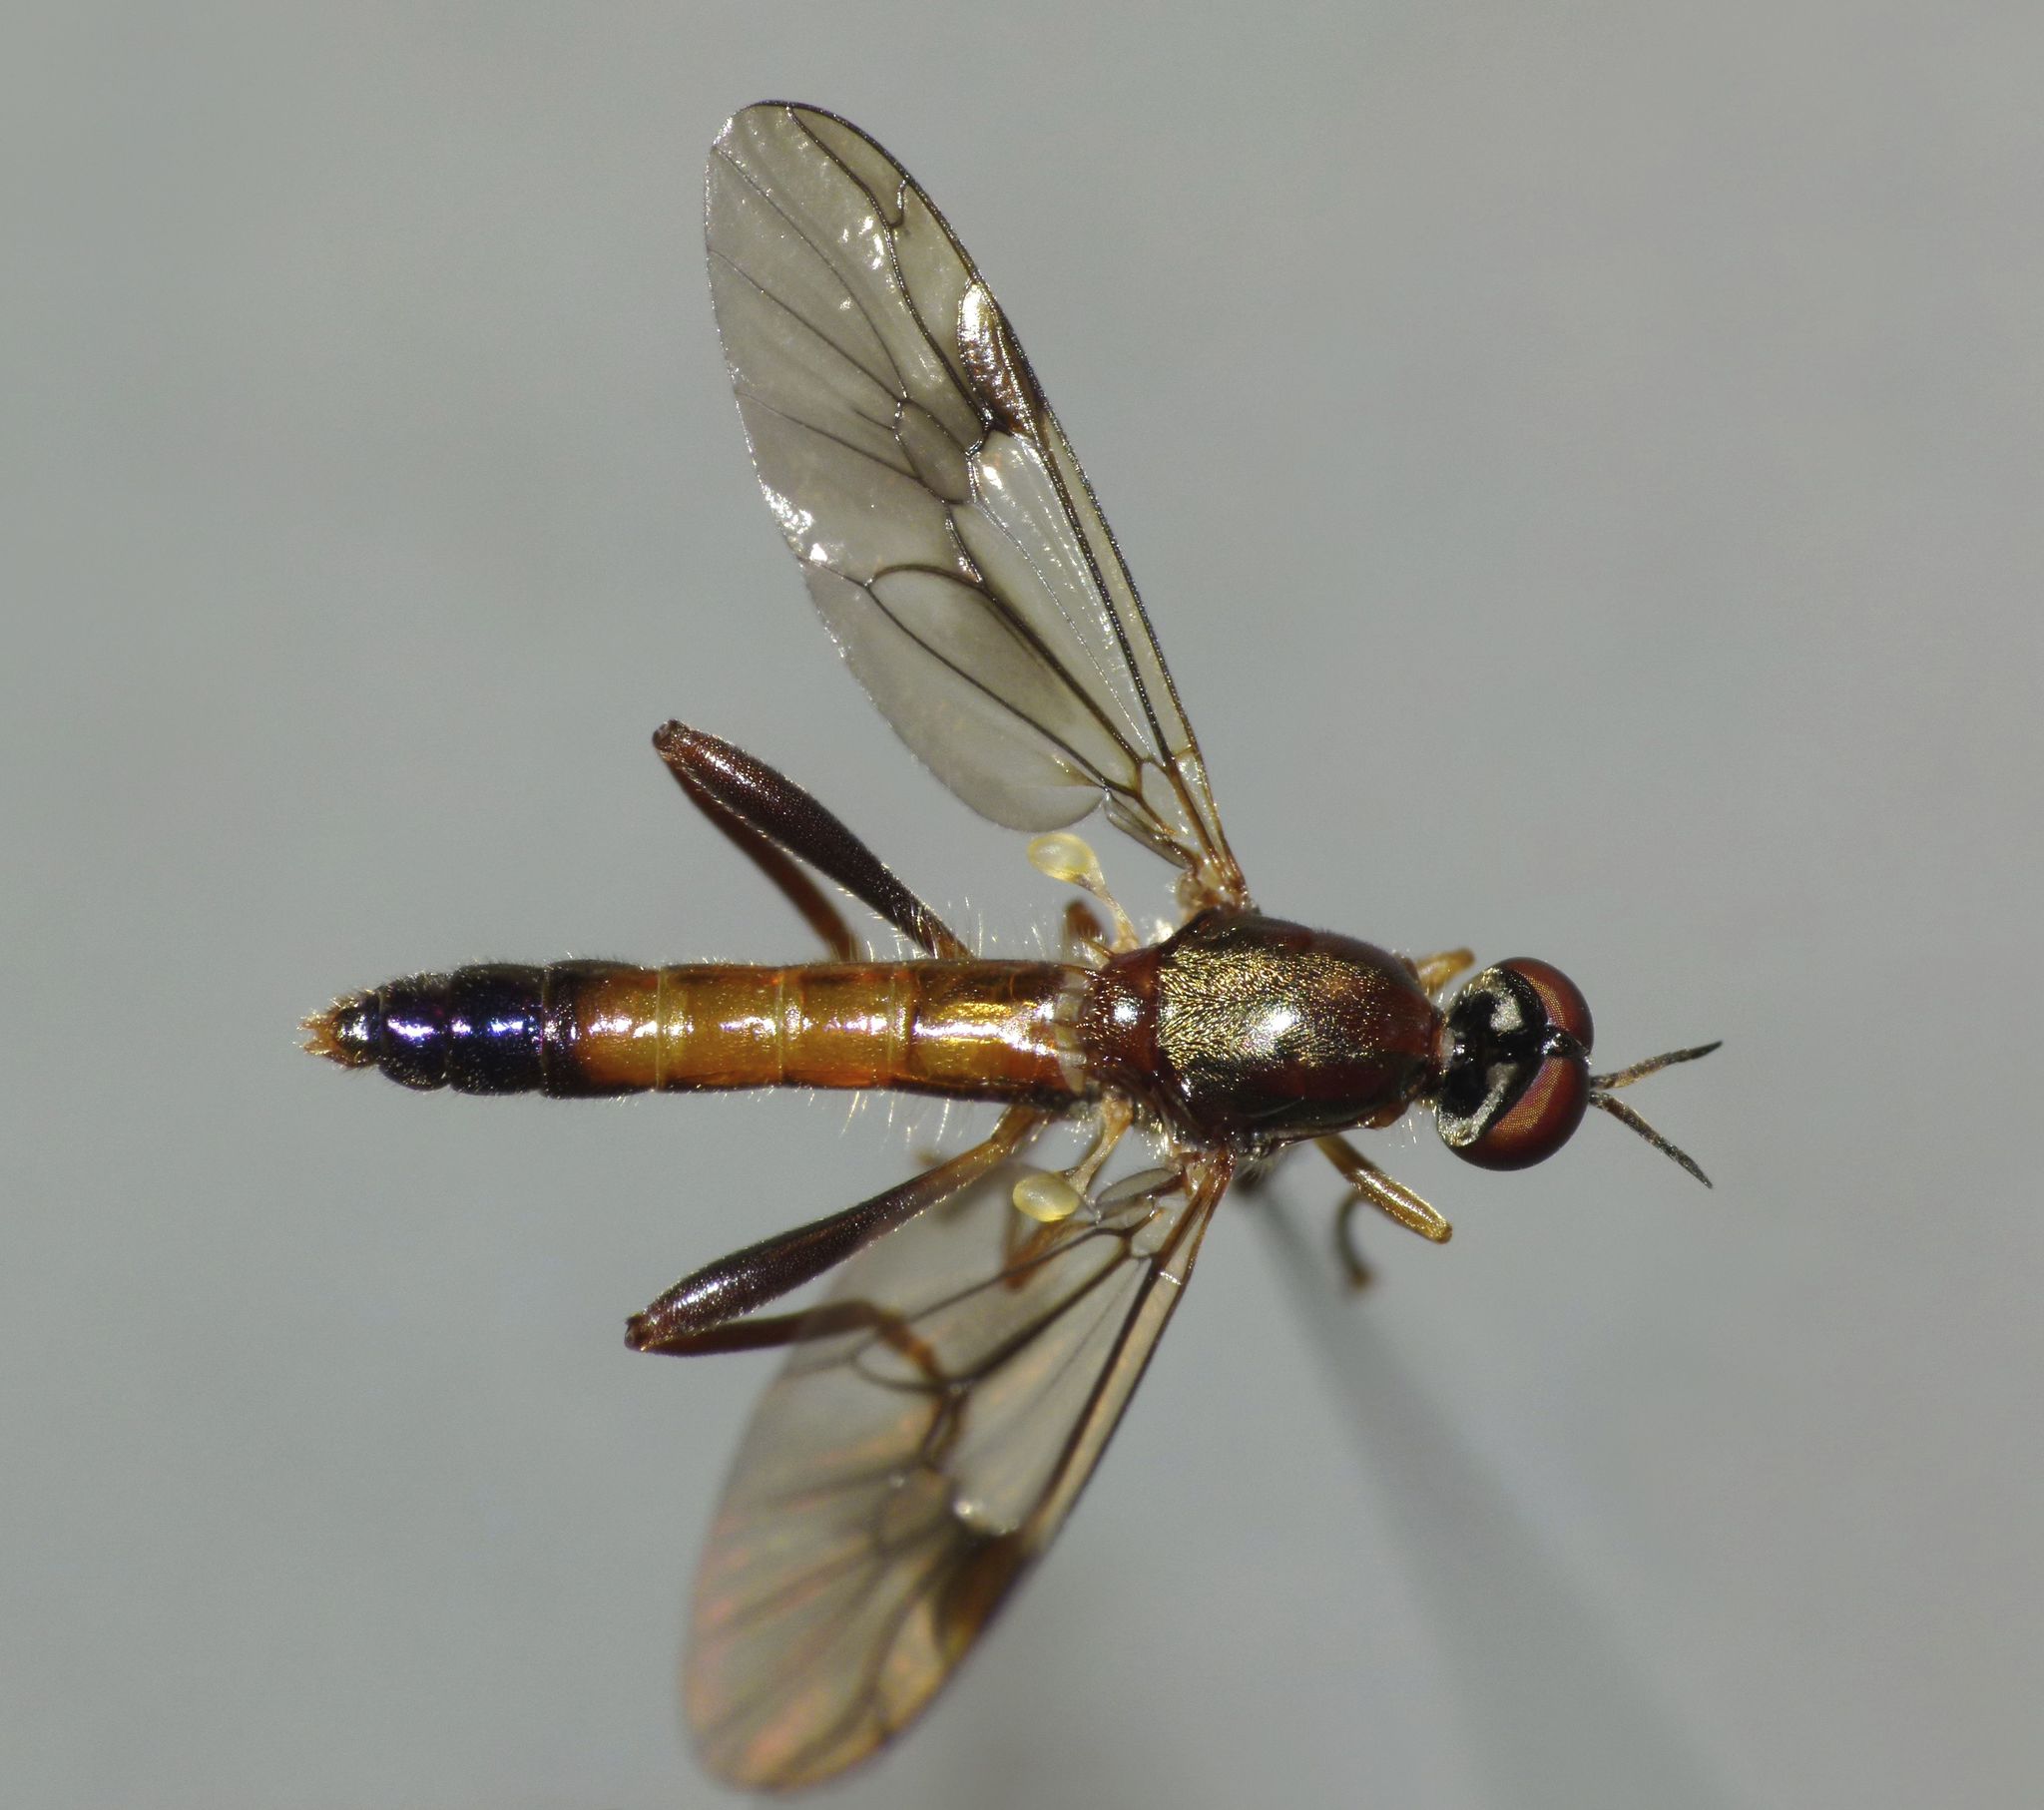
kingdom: Animalia
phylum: Arthropoda
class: Insecta
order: Diptera
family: Stratiomyidae
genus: Benhamyia
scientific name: Benhamyia straznitzkii
